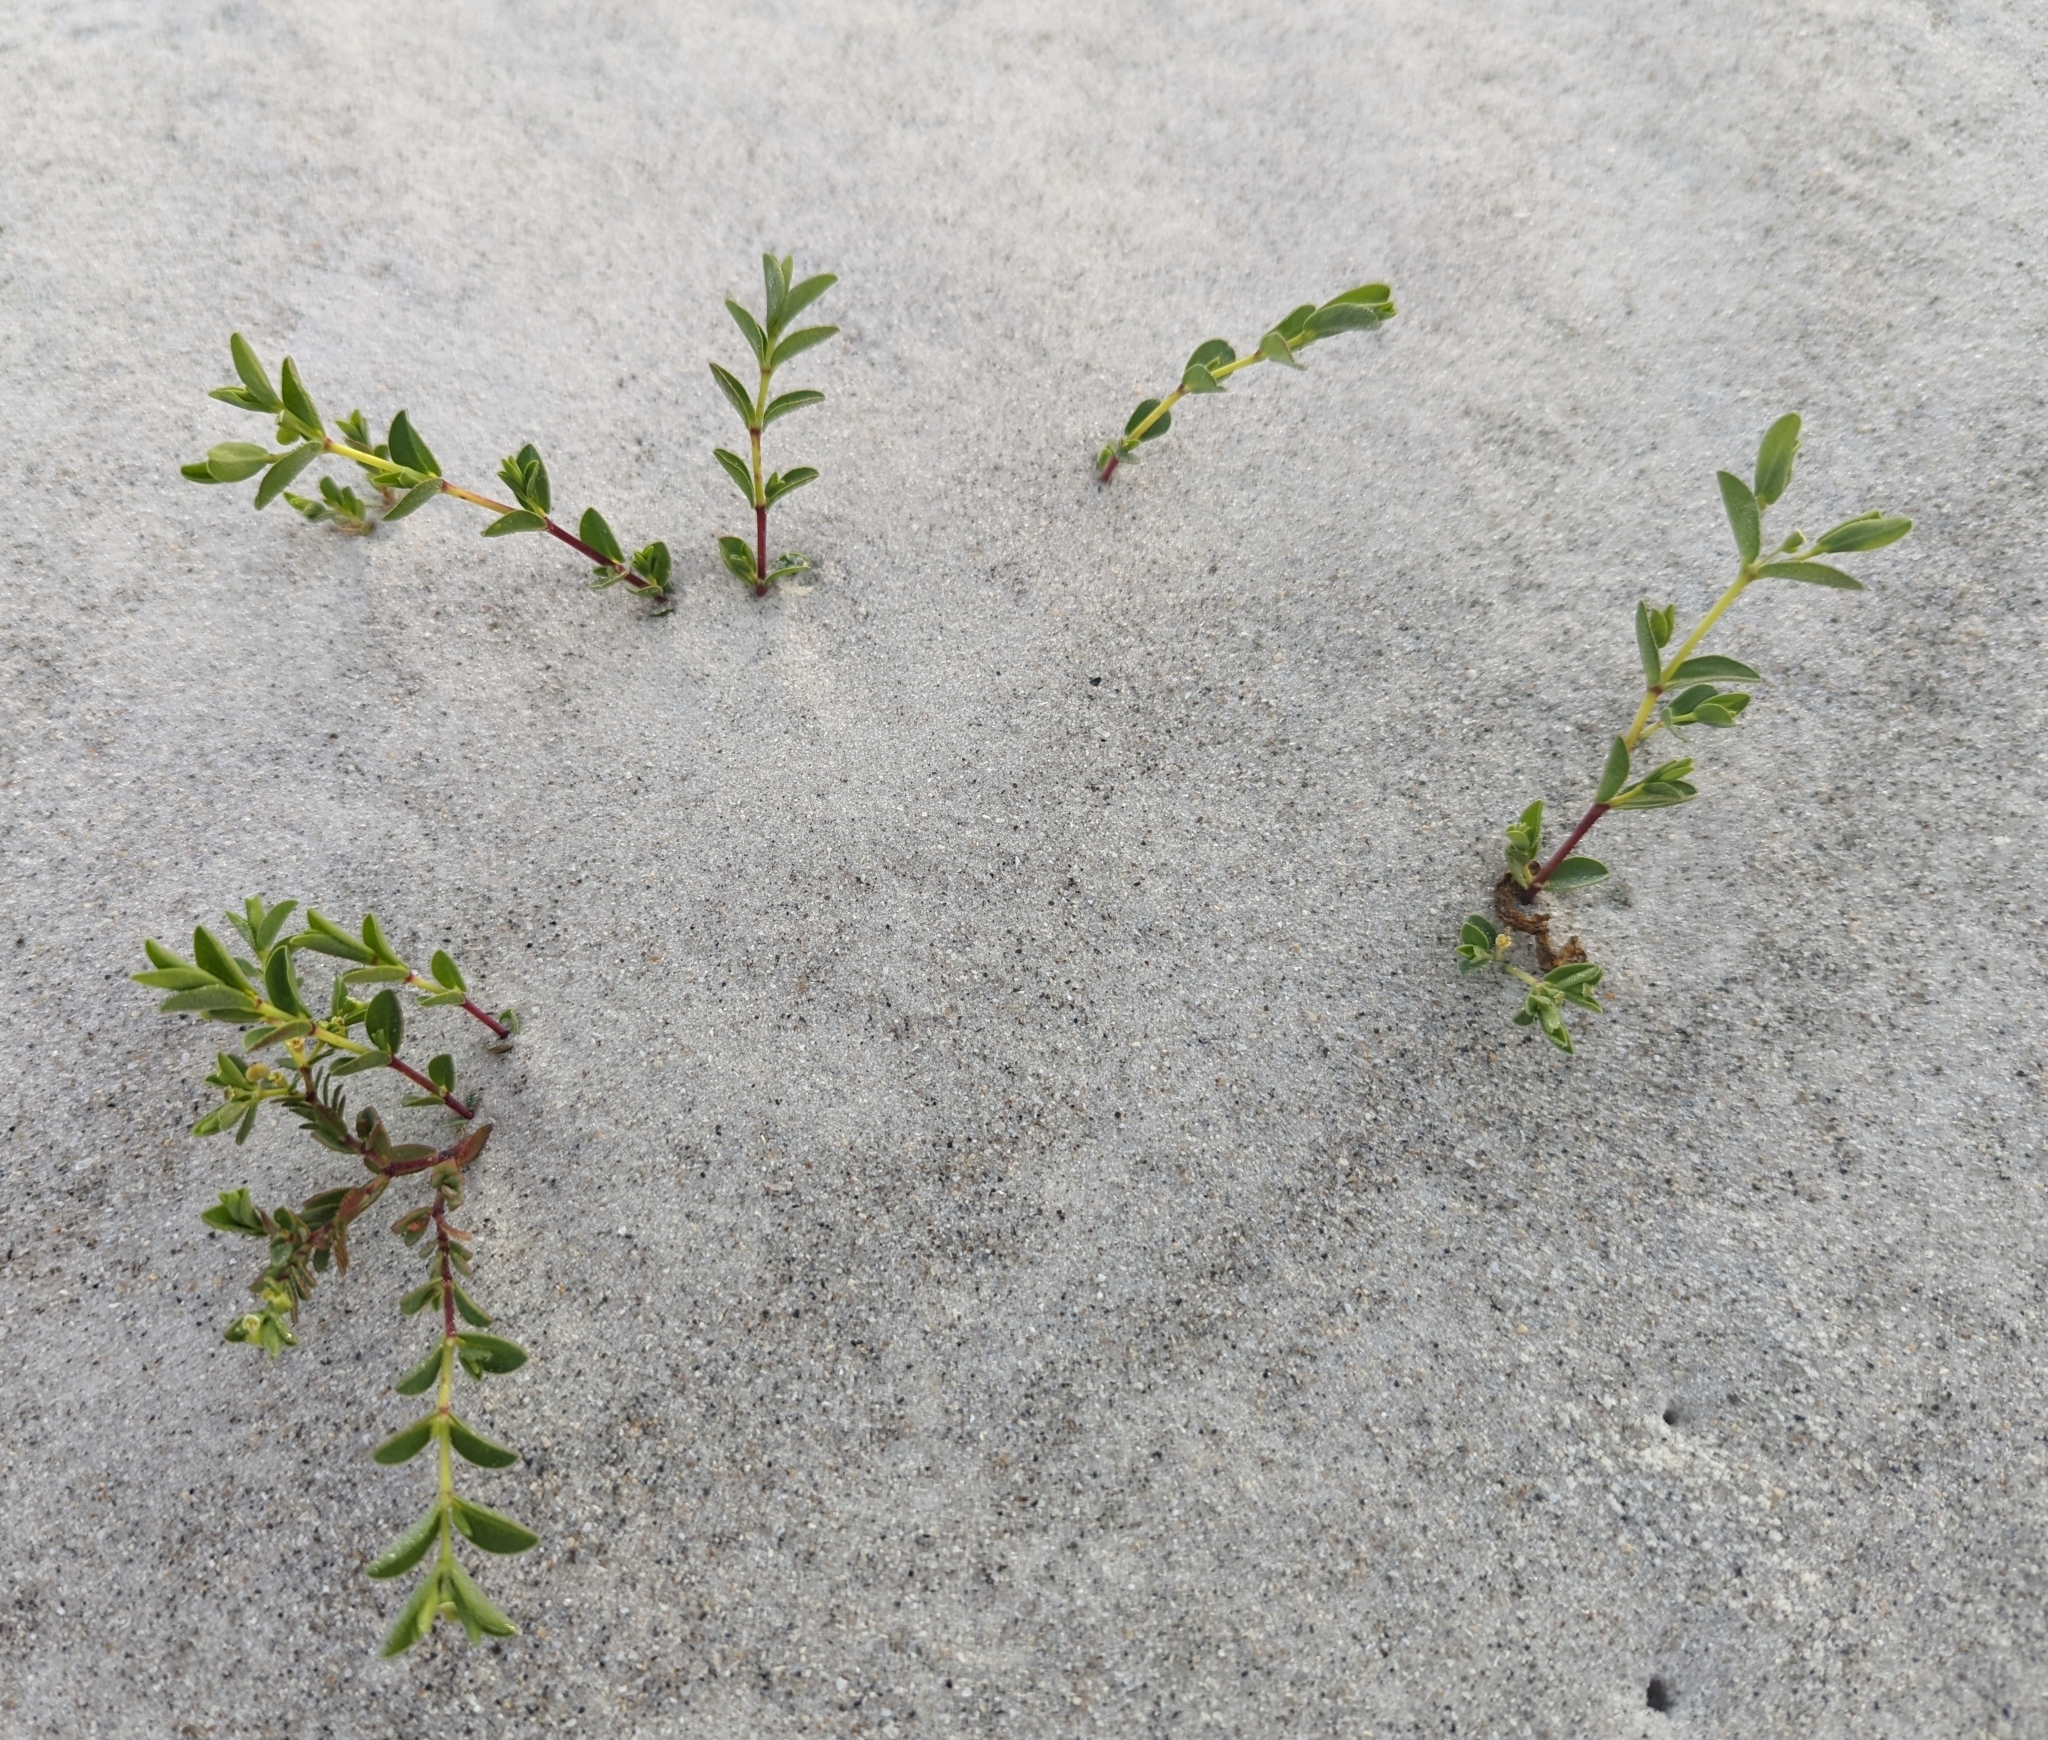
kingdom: Plantae
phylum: Tracheophyta
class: Magnoliopsida
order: Malpighiales
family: Euphorbiaceae
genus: Euphorbia
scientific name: Euphorbia mesembryanthemifolia
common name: Coastal beach sandmat
